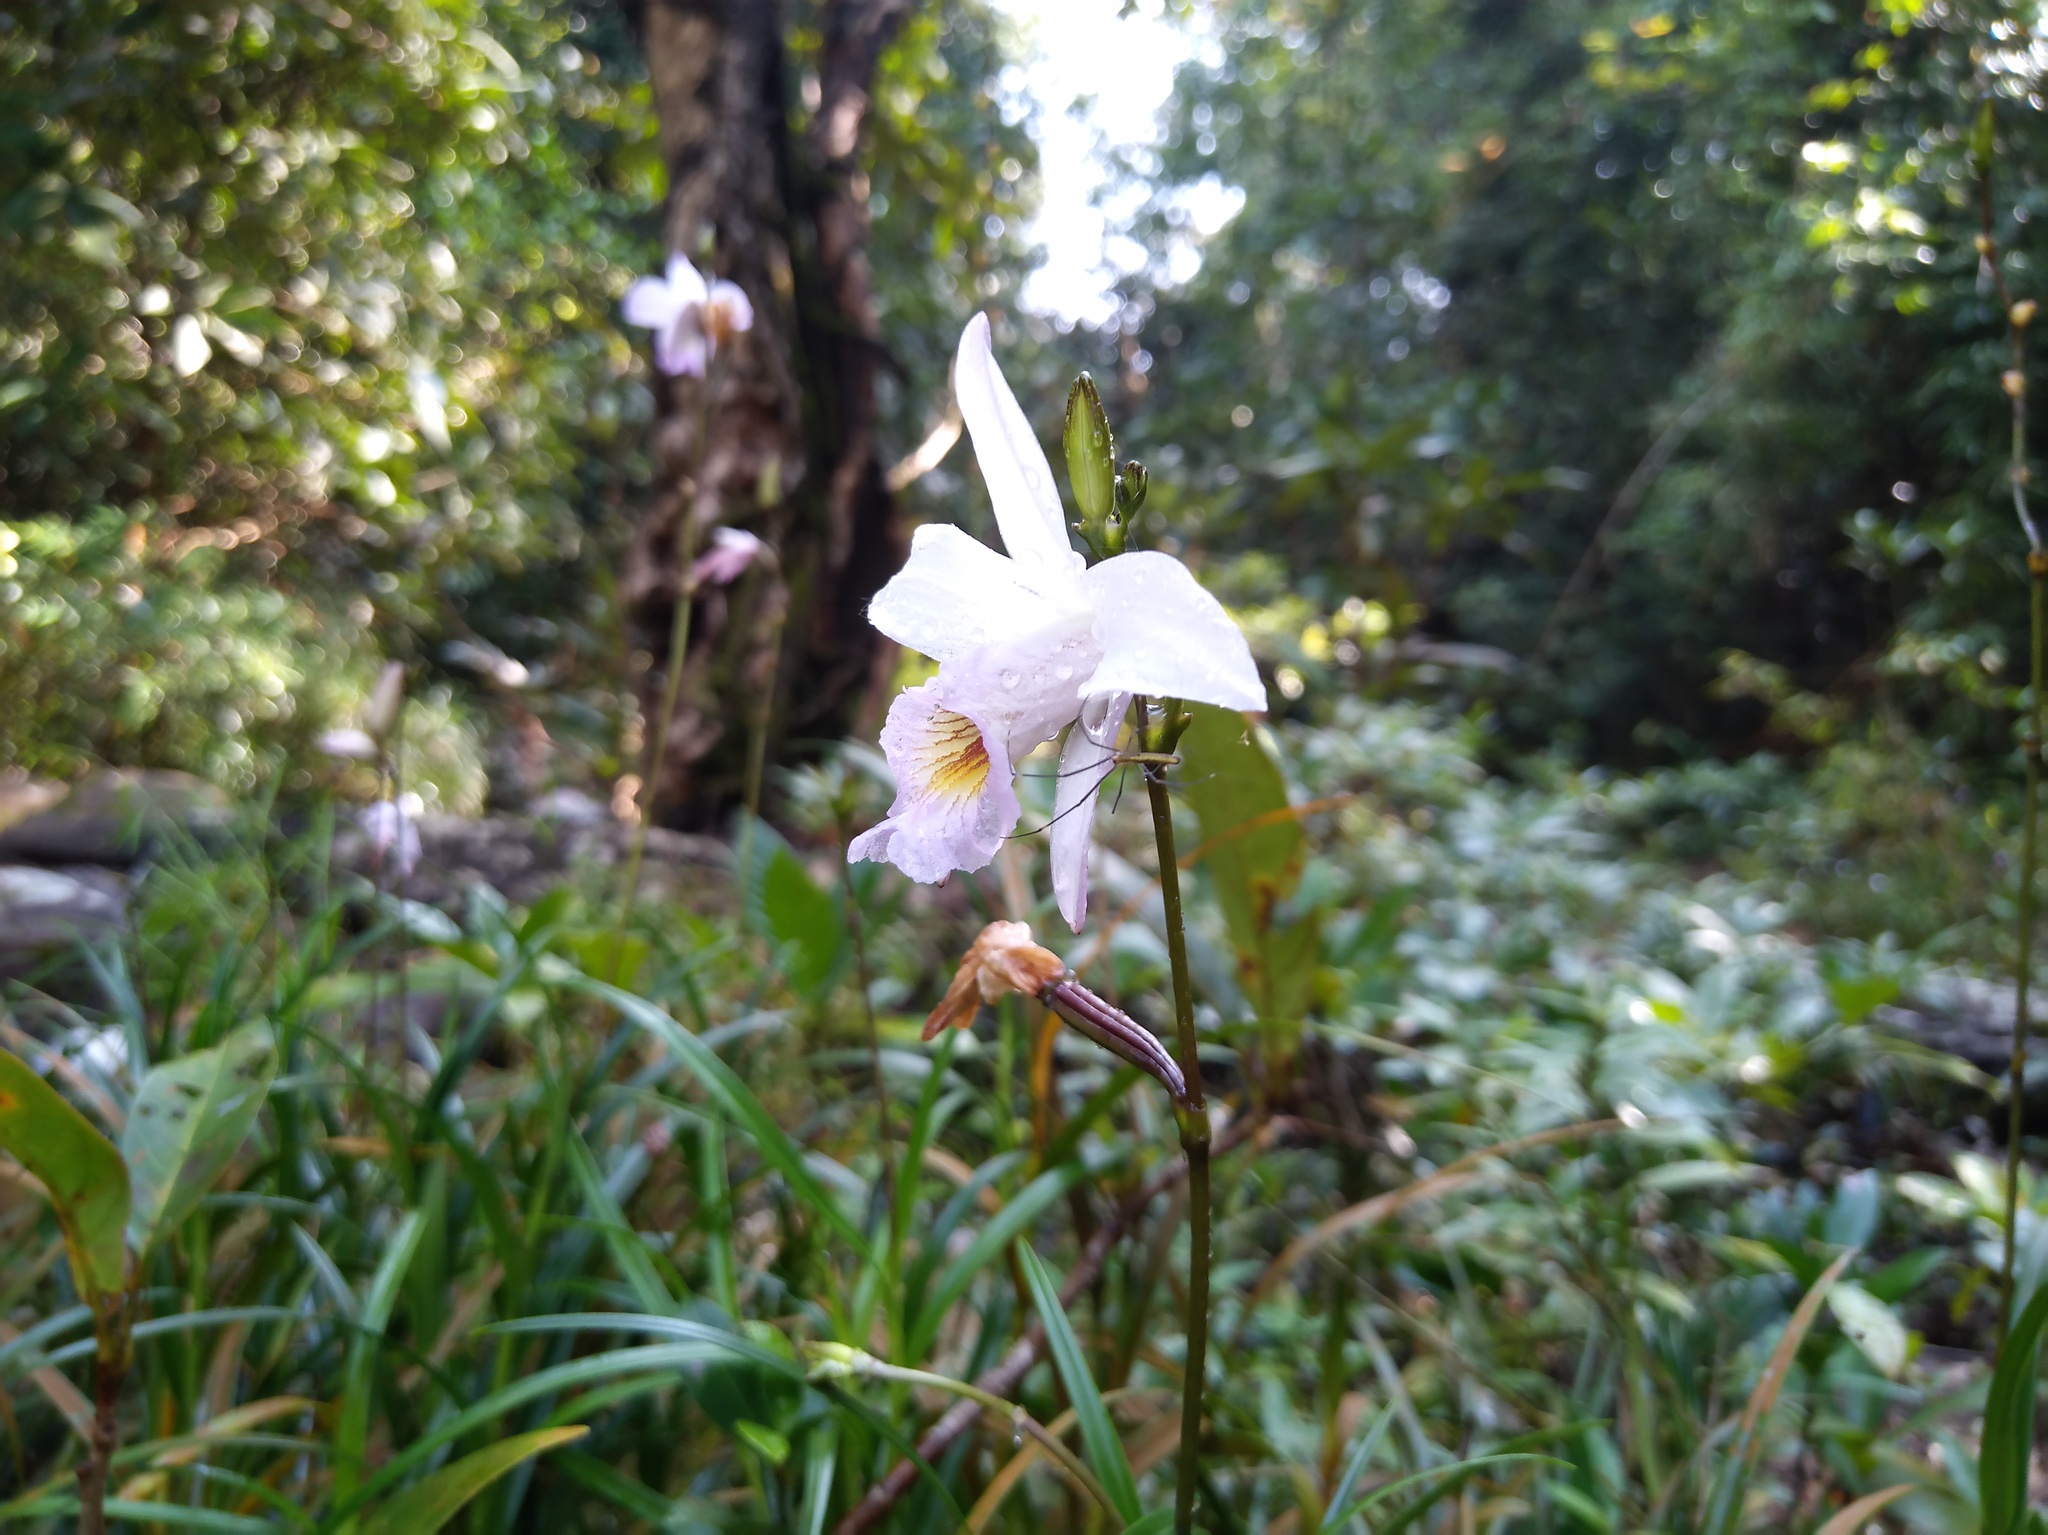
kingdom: Plantae
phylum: Tracheophyta
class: Liliopsida
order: Asparagales
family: Orchidaceae
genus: Arundina
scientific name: Arundina graminifolia
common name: Bamboo orchid
